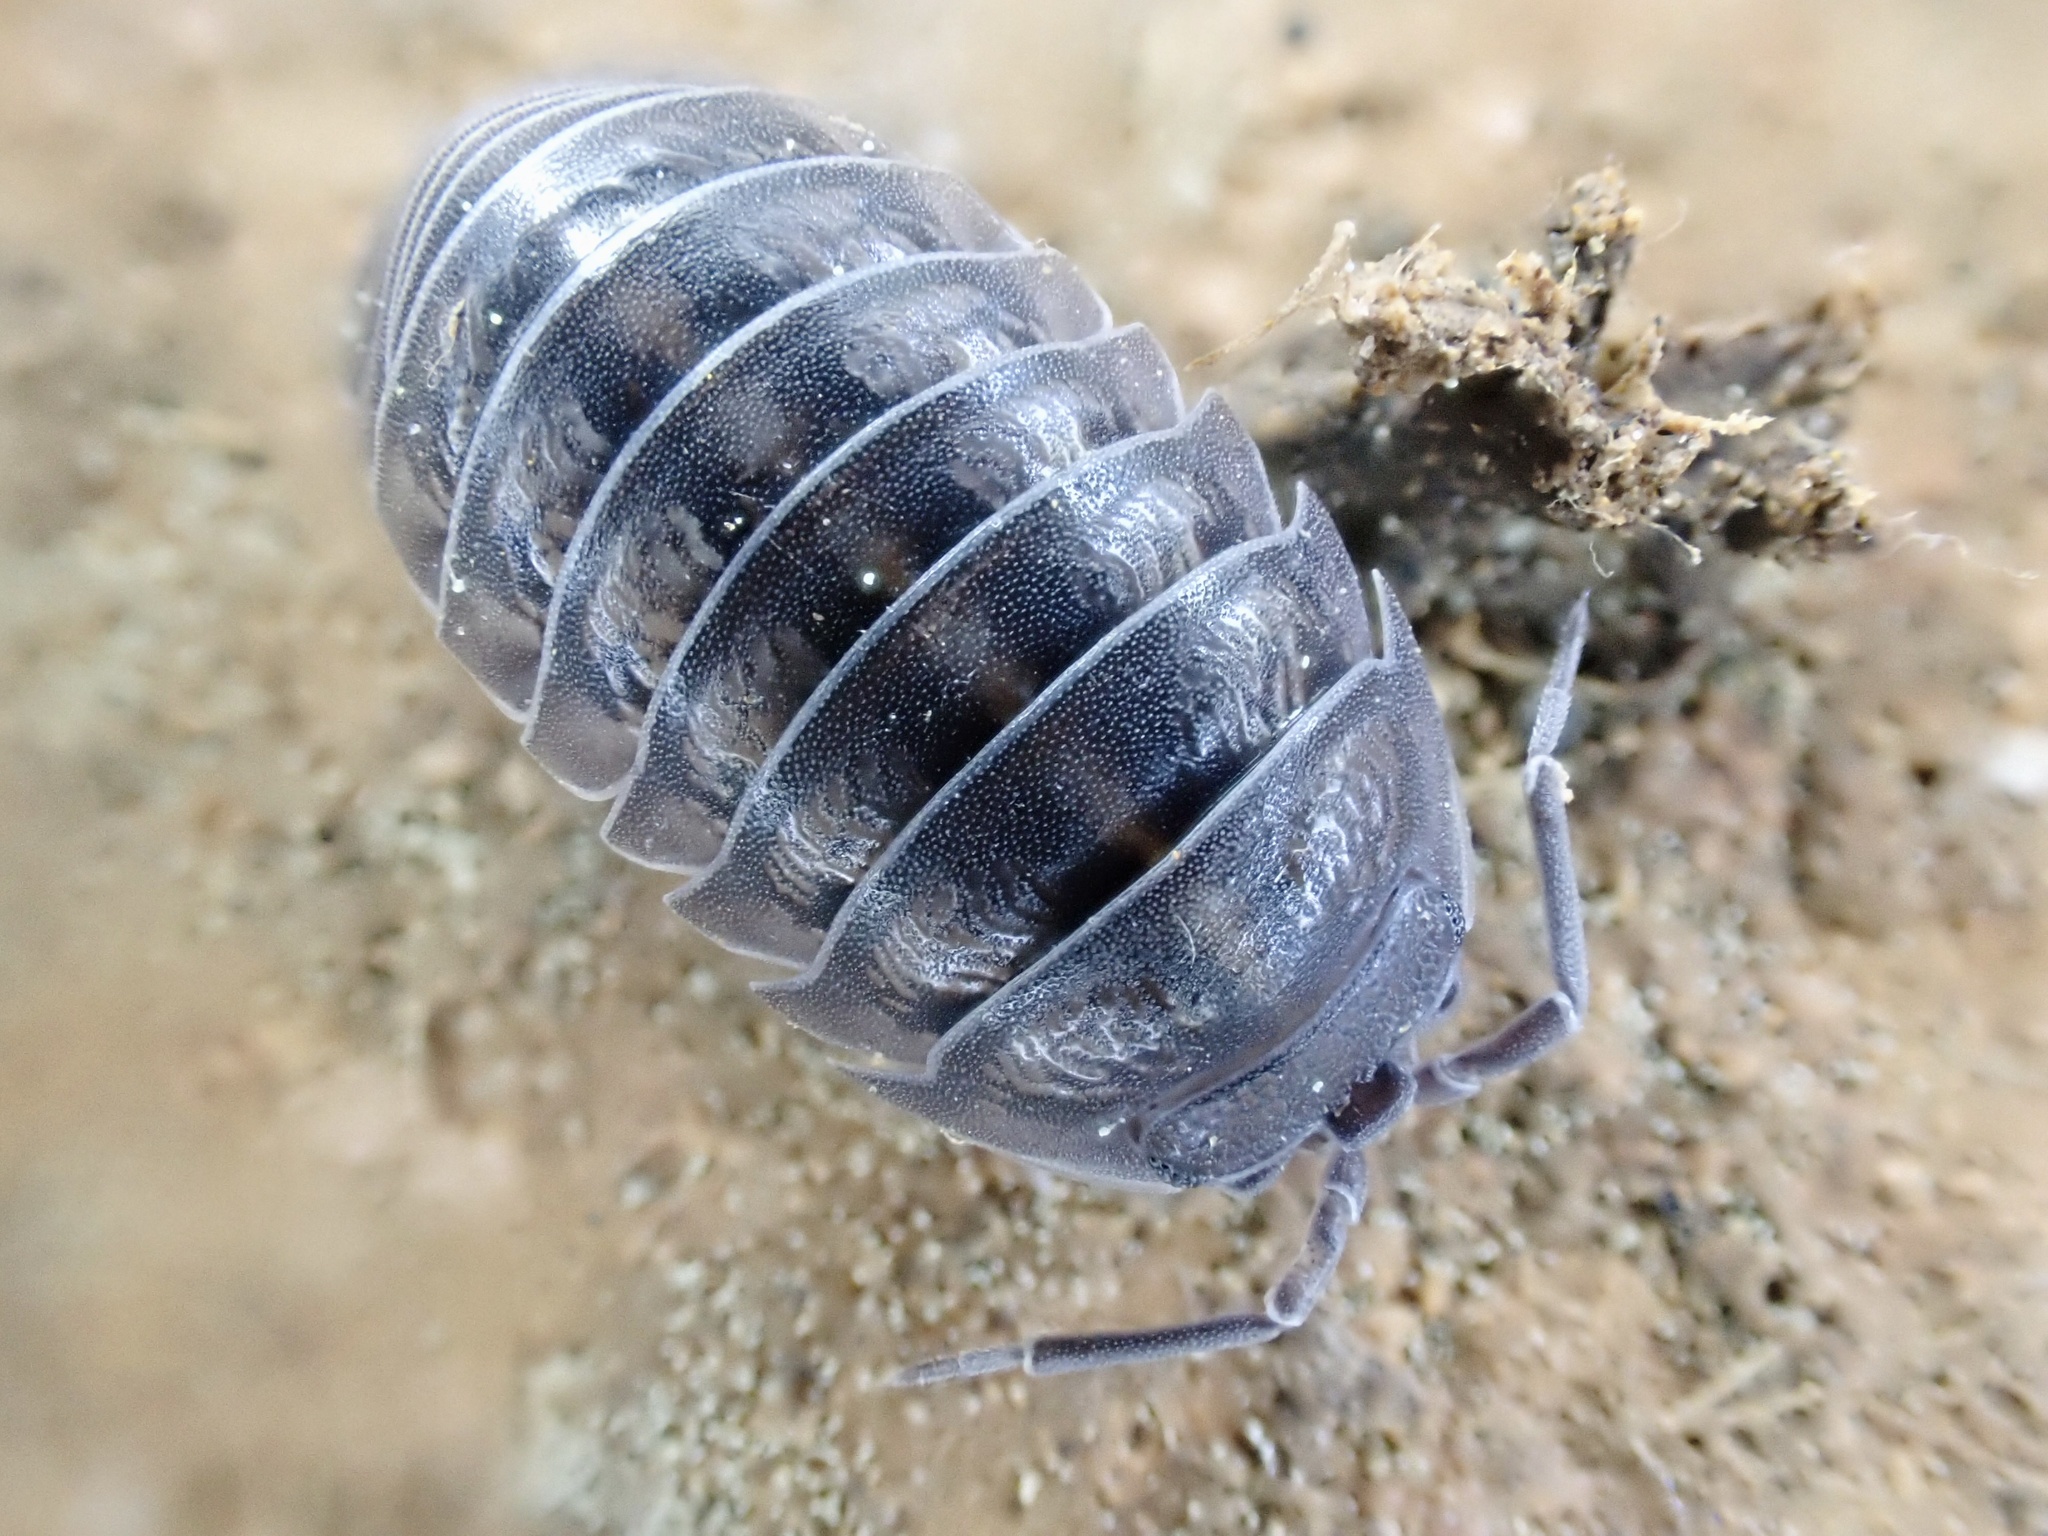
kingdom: Animalia
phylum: Arthropoda
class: Malacostraca
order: Isopoda
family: Armadillidiidae
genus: Armadillidium
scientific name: Armadillidium nasatum
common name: Isopod
